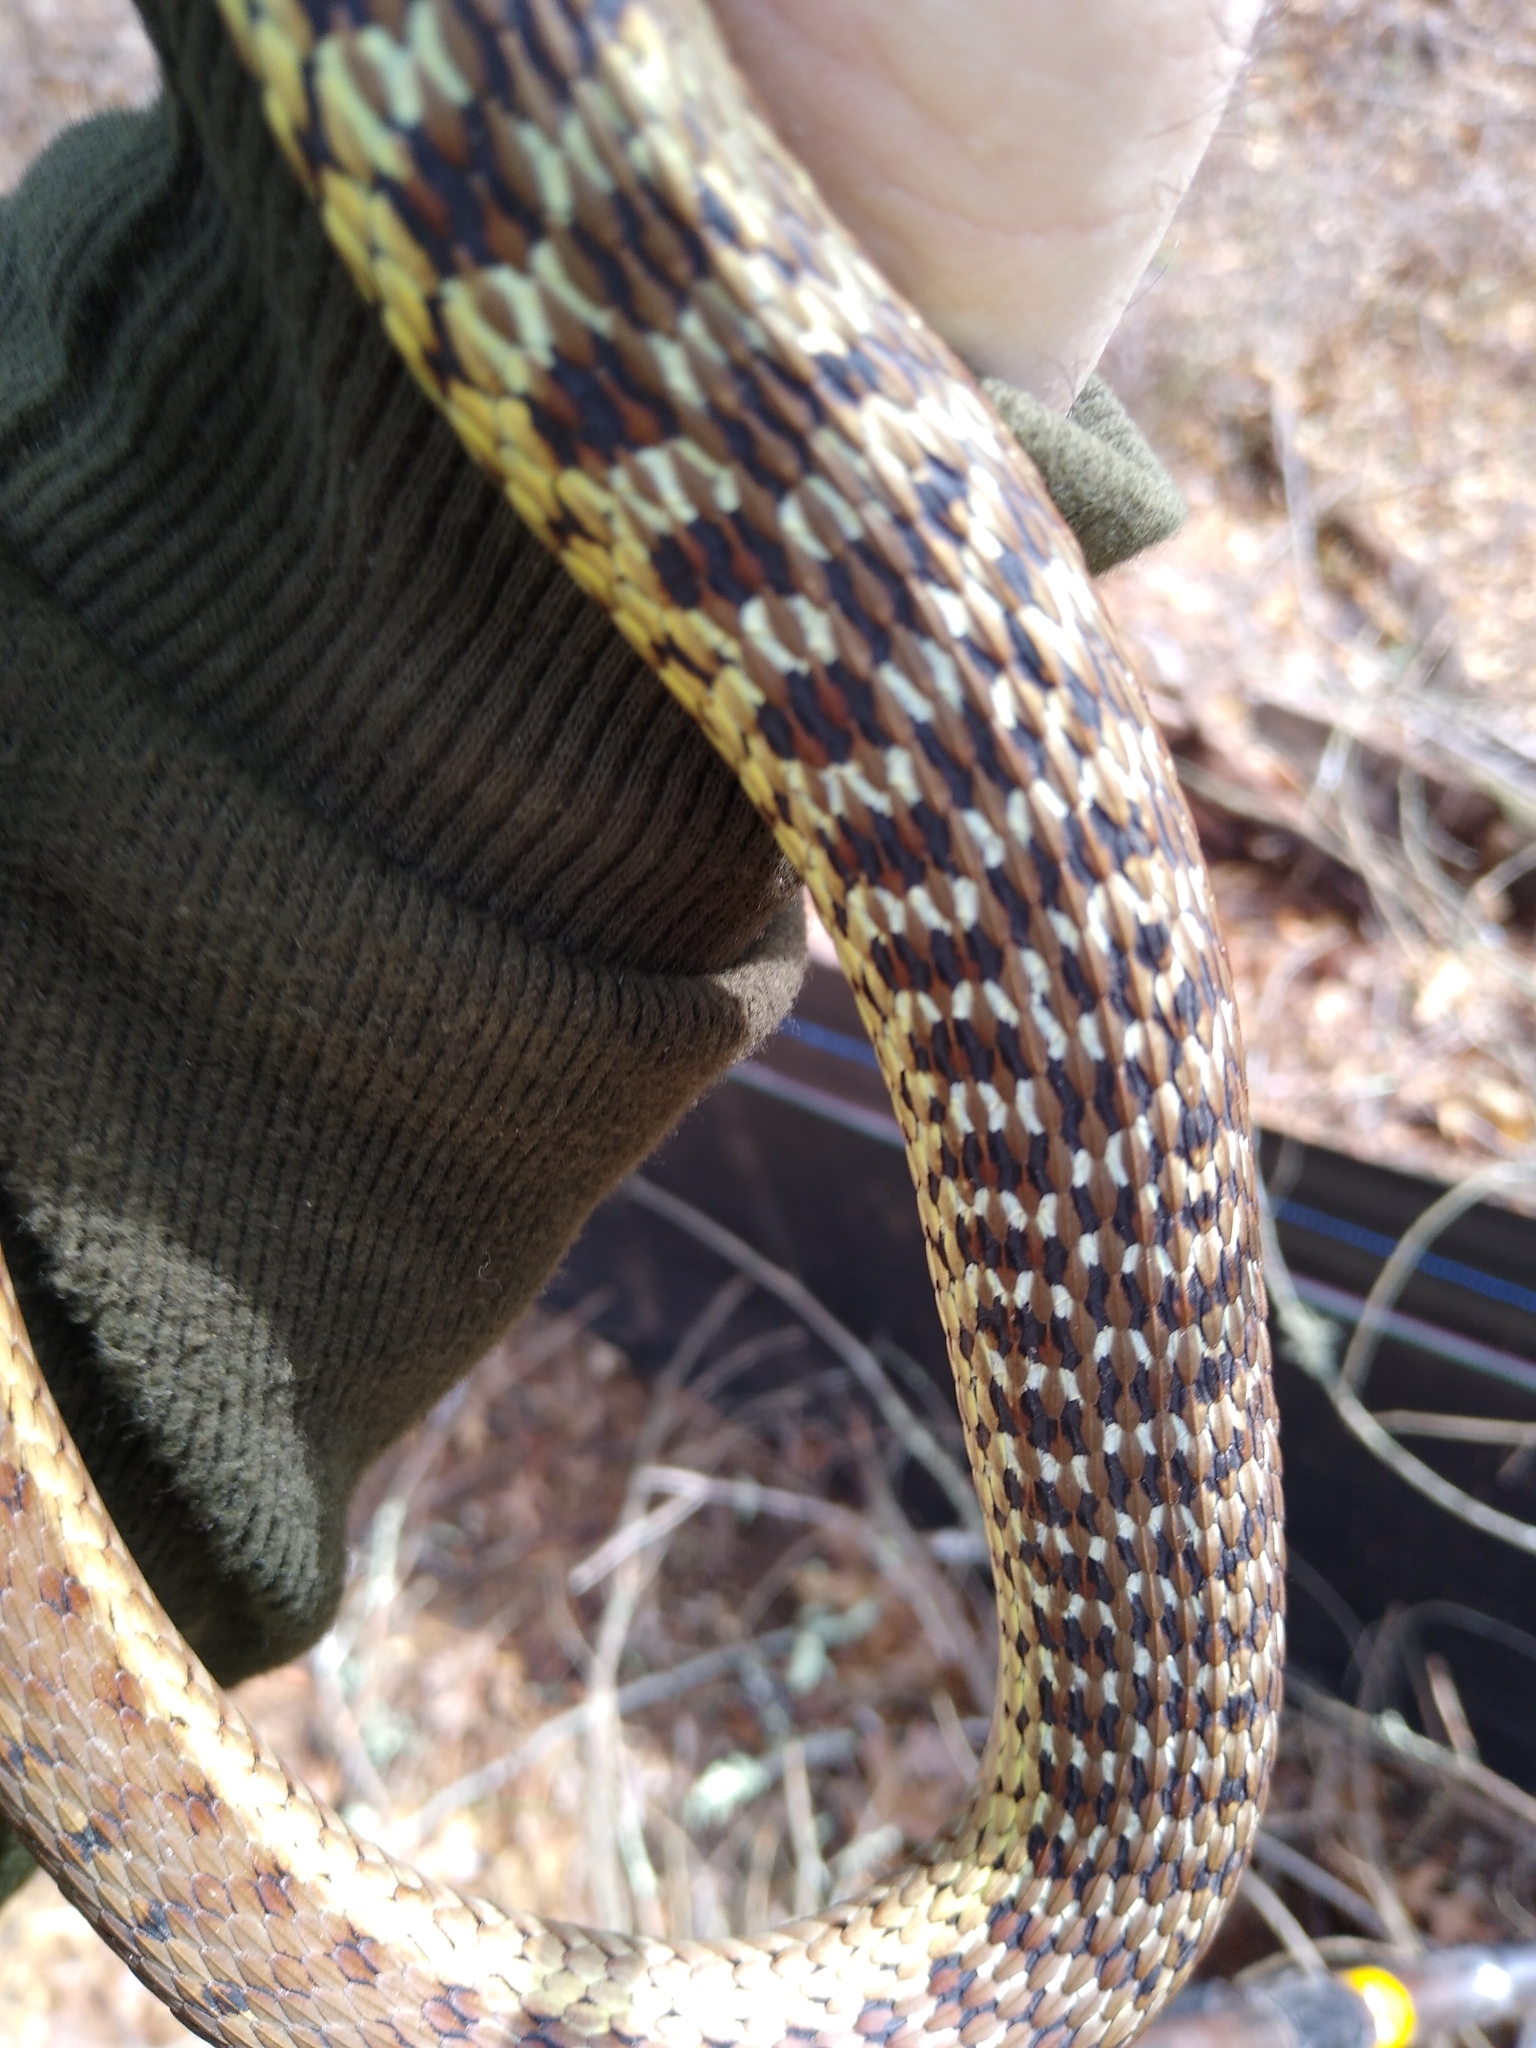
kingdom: Animalia
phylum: Chordata
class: Squamata
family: Colubridae
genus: Thamnophis
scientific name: Thamnophis sirtalis
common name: Common garter snake
